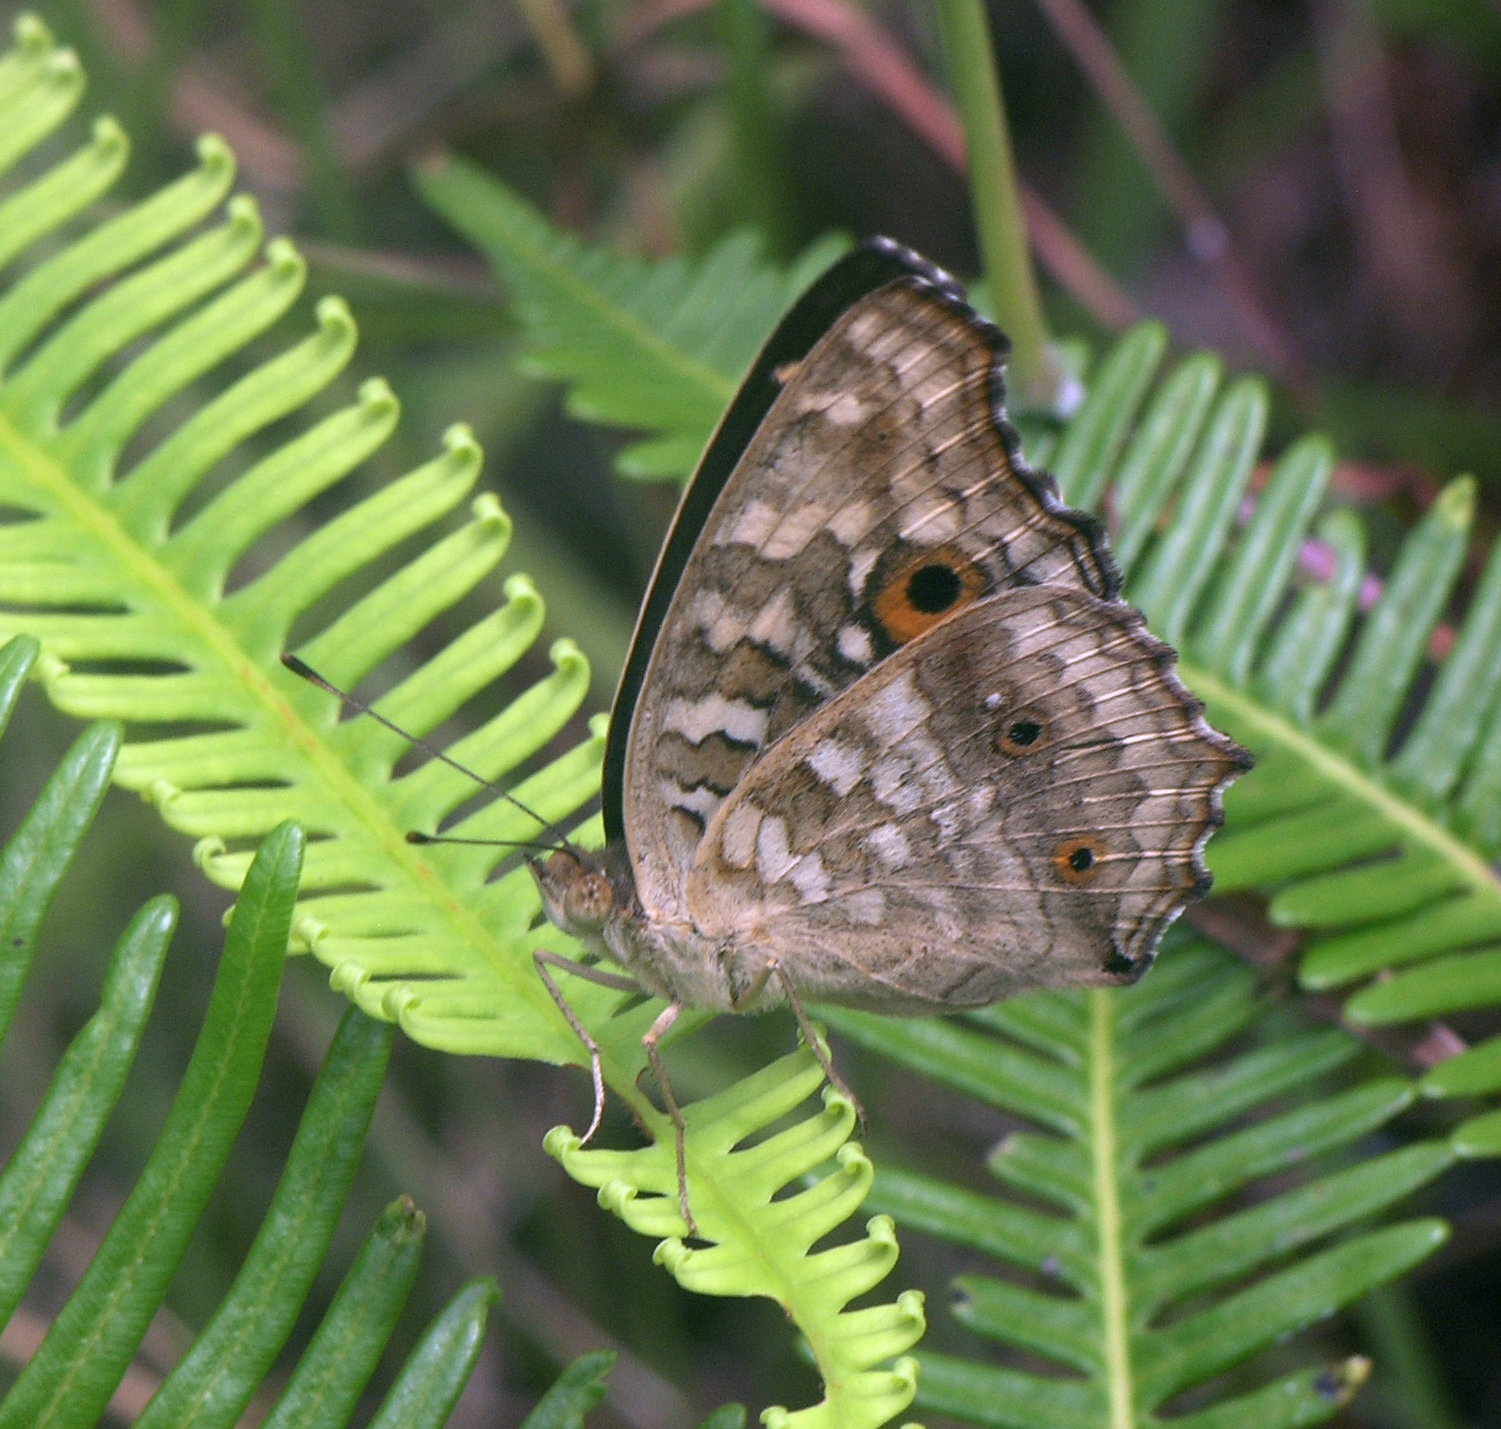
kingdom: Animalia
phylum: Arthropoda
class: Insecta
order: Lepidoptera
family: Nymphalidae
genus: Junonia
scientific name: Junonia lemonias
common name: Lemon pansy
